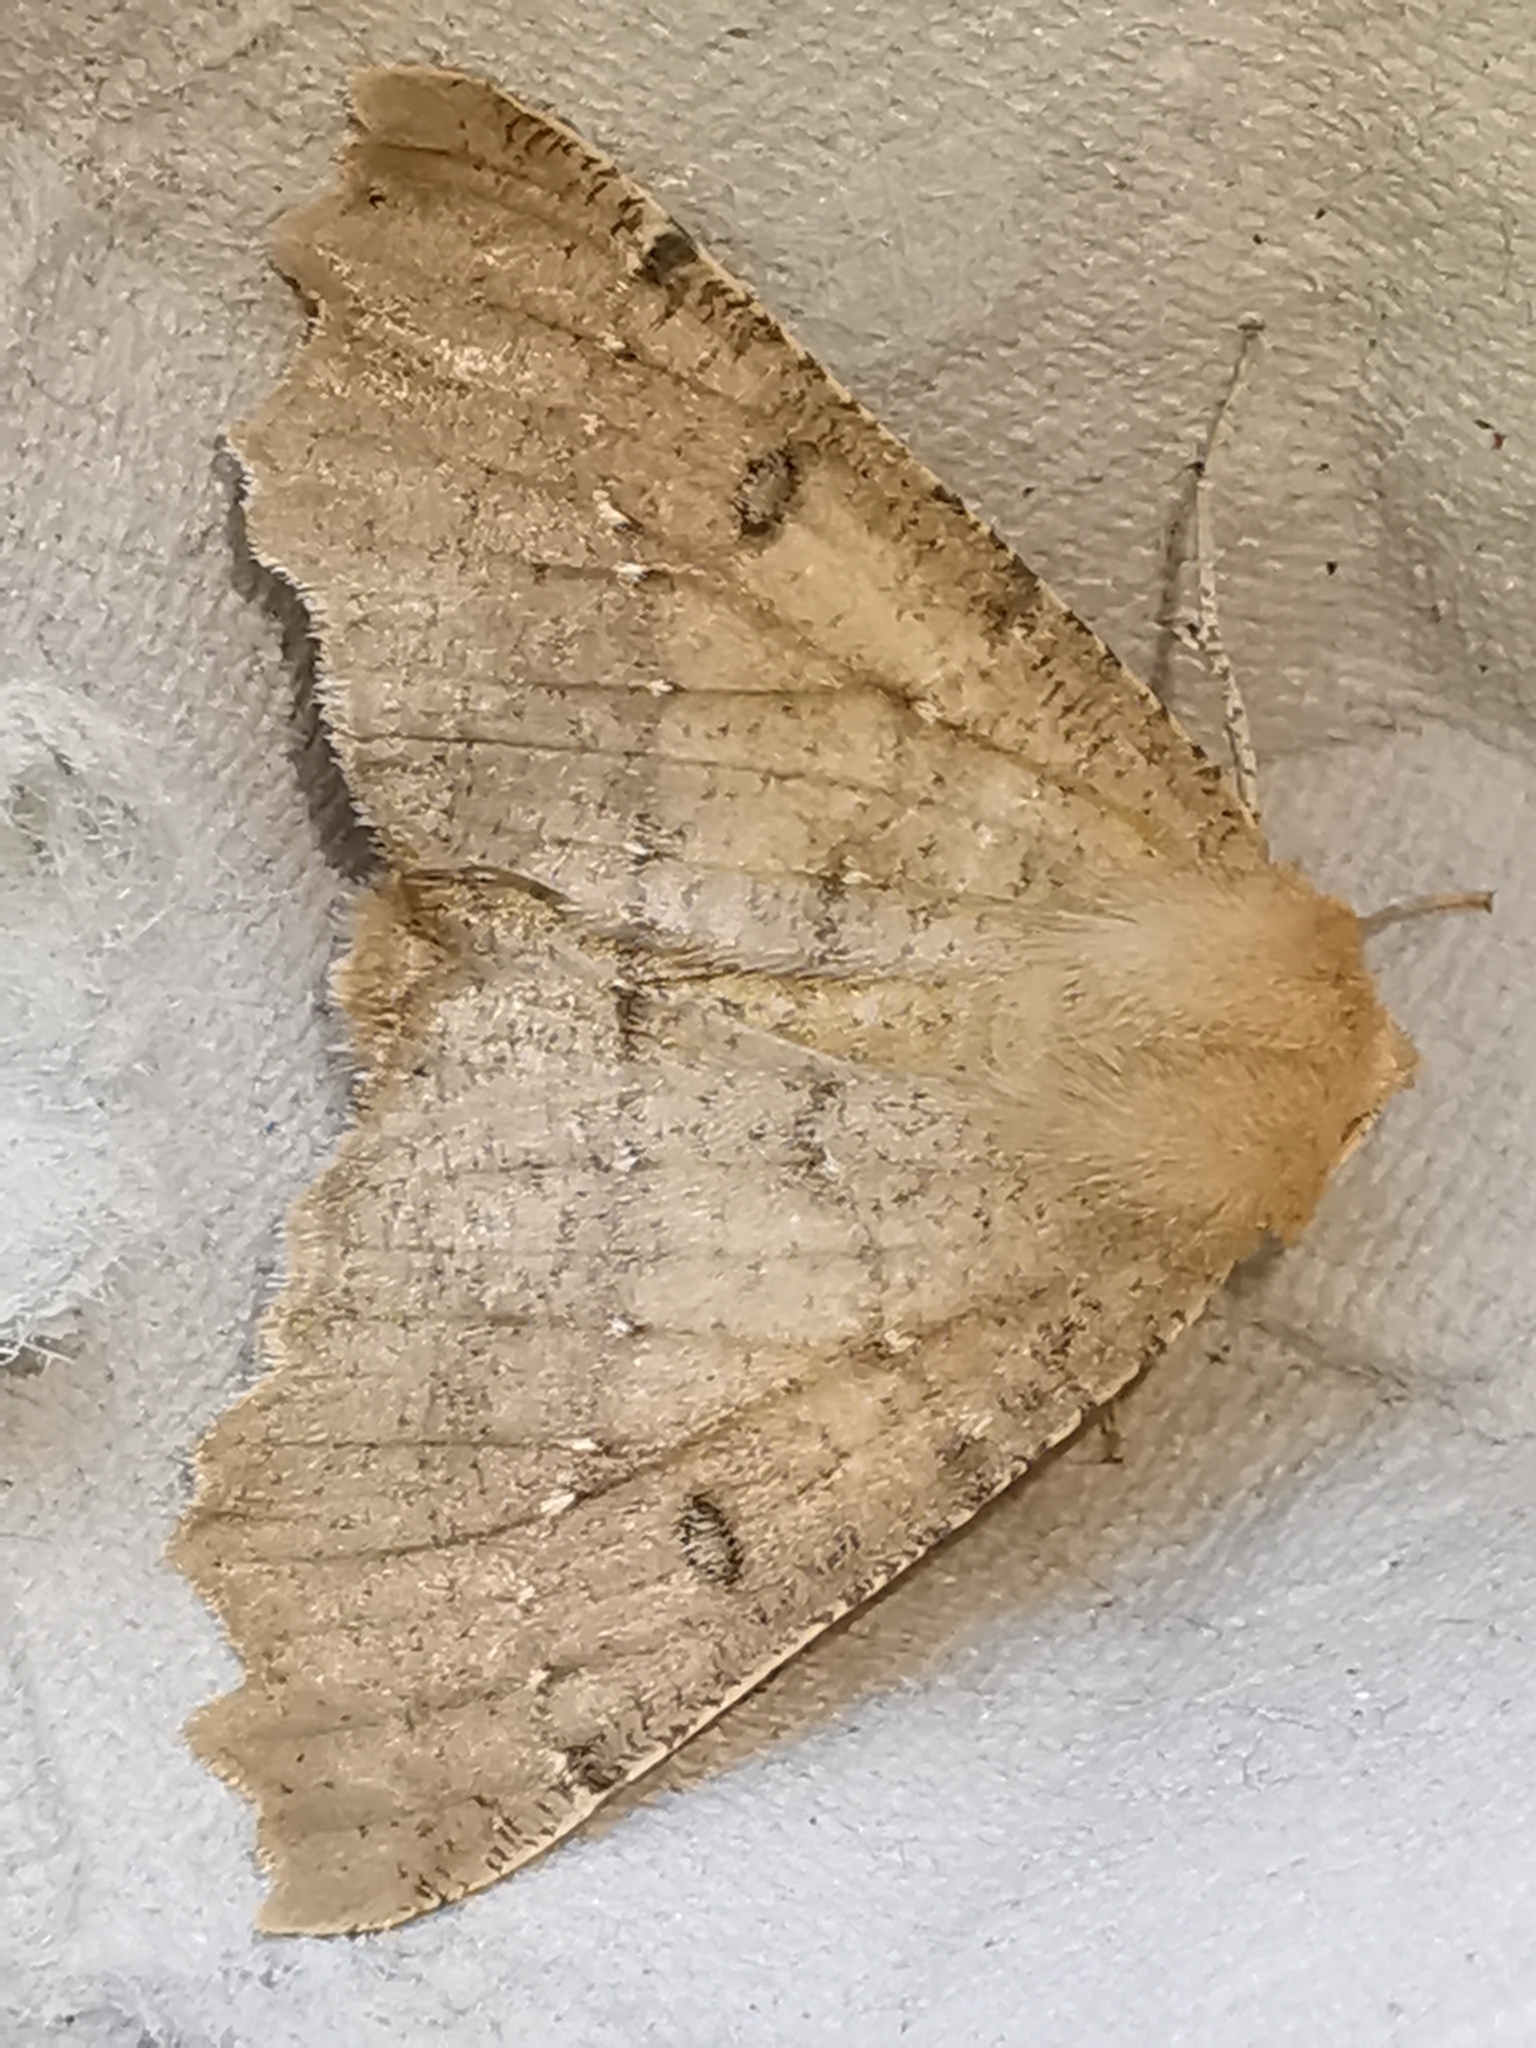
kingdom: Animalia
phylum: Arthropoda
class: Insecta
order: Lepidoptera
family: Geometridae
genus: Odontopera
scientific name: Odontopera bidentata
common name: Scalloped hazel
